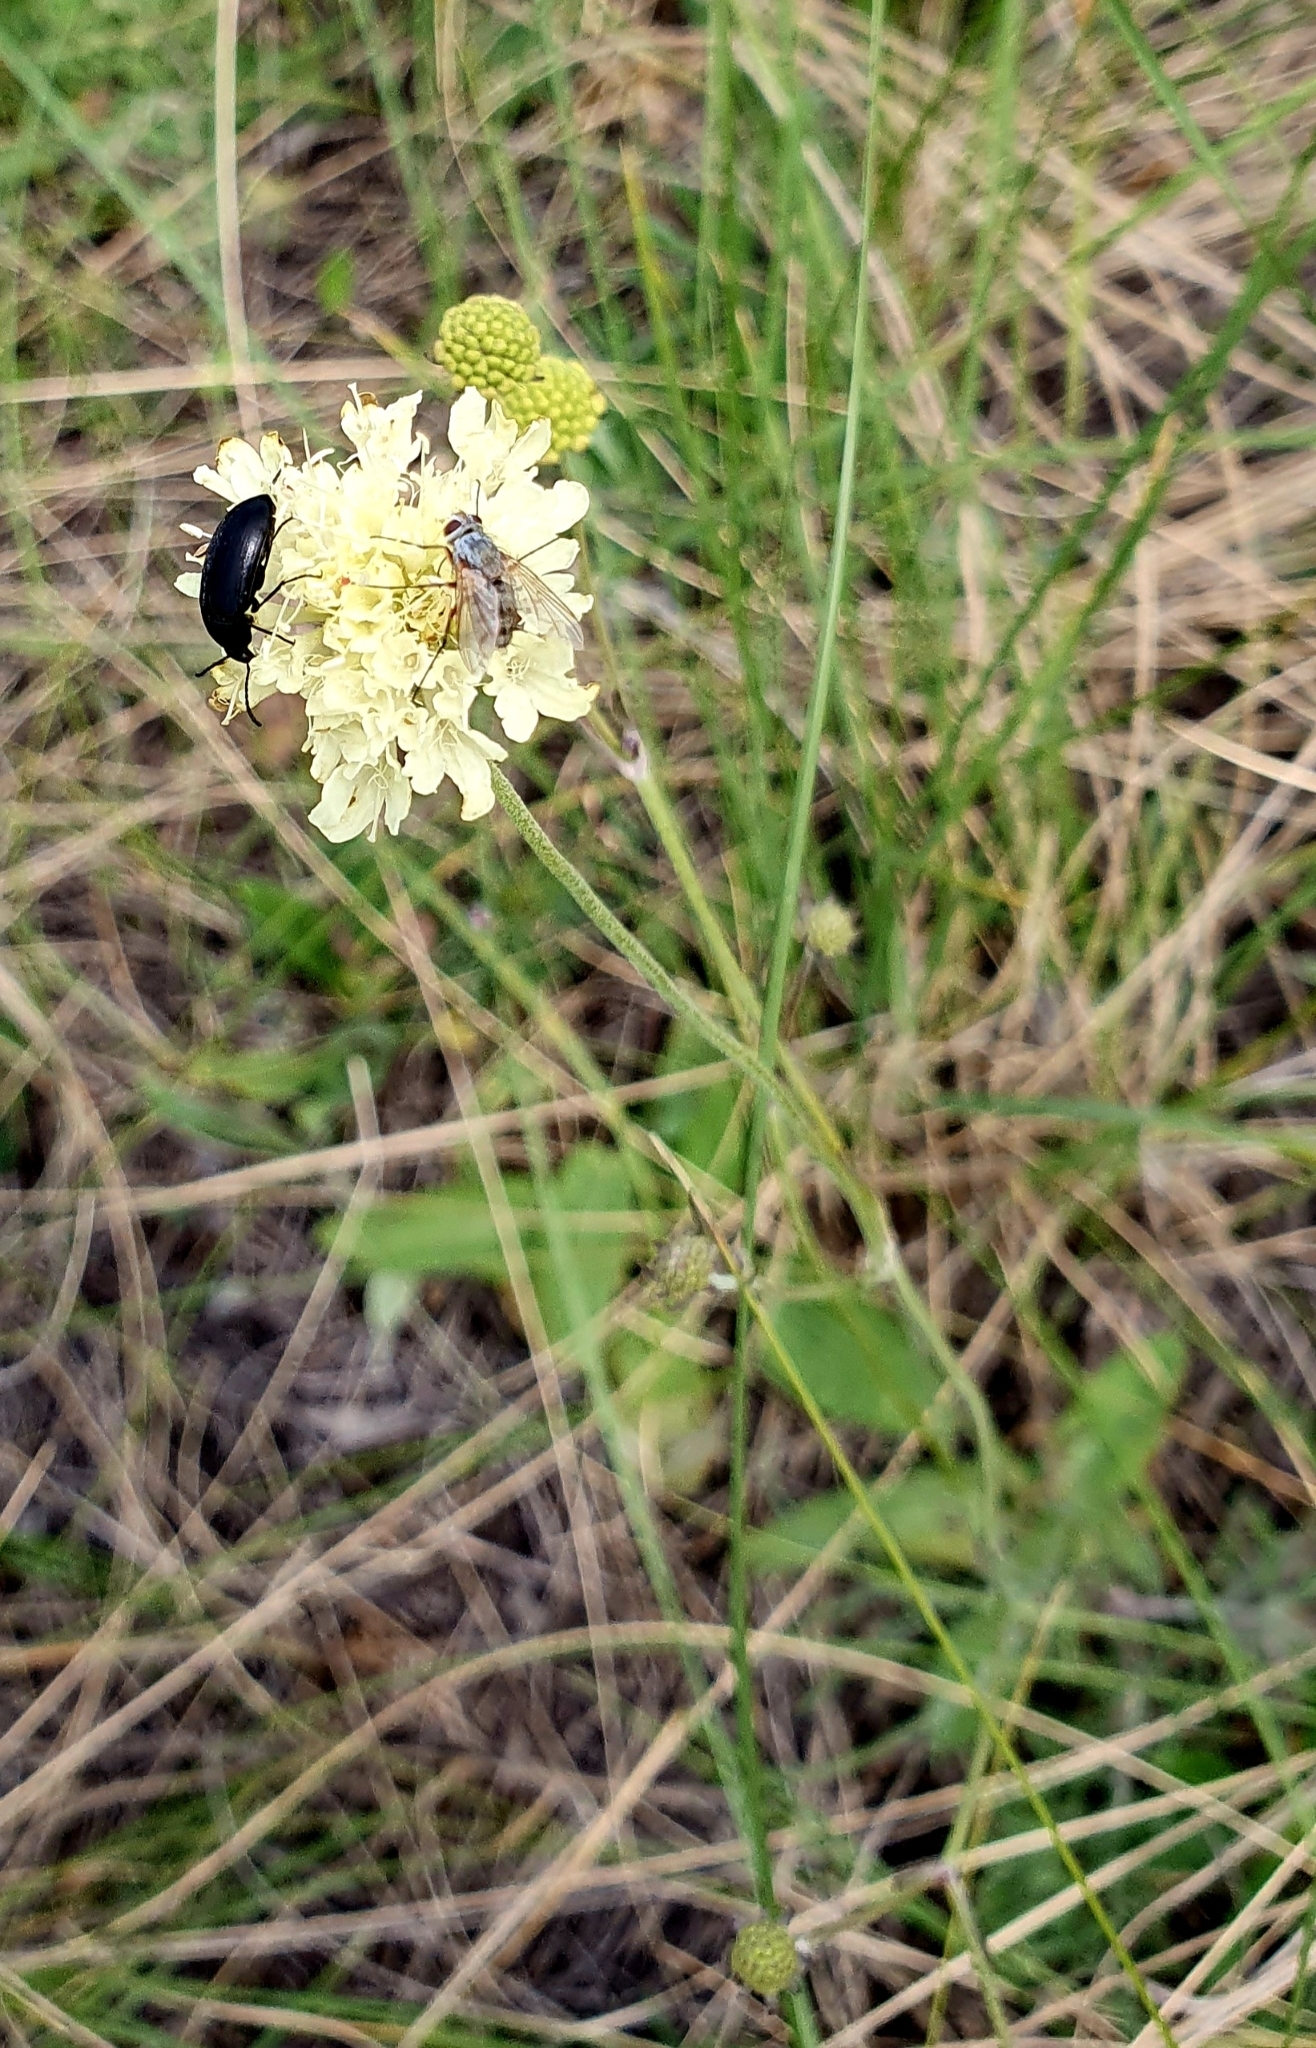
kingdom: Plantae
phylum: Tracheophyta
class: Magnoliopsida
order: Dipsacales
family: Caprifoliaceae
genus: Scabiosa
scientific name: Scabiosa ochroleuca
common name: Cream pincushions
